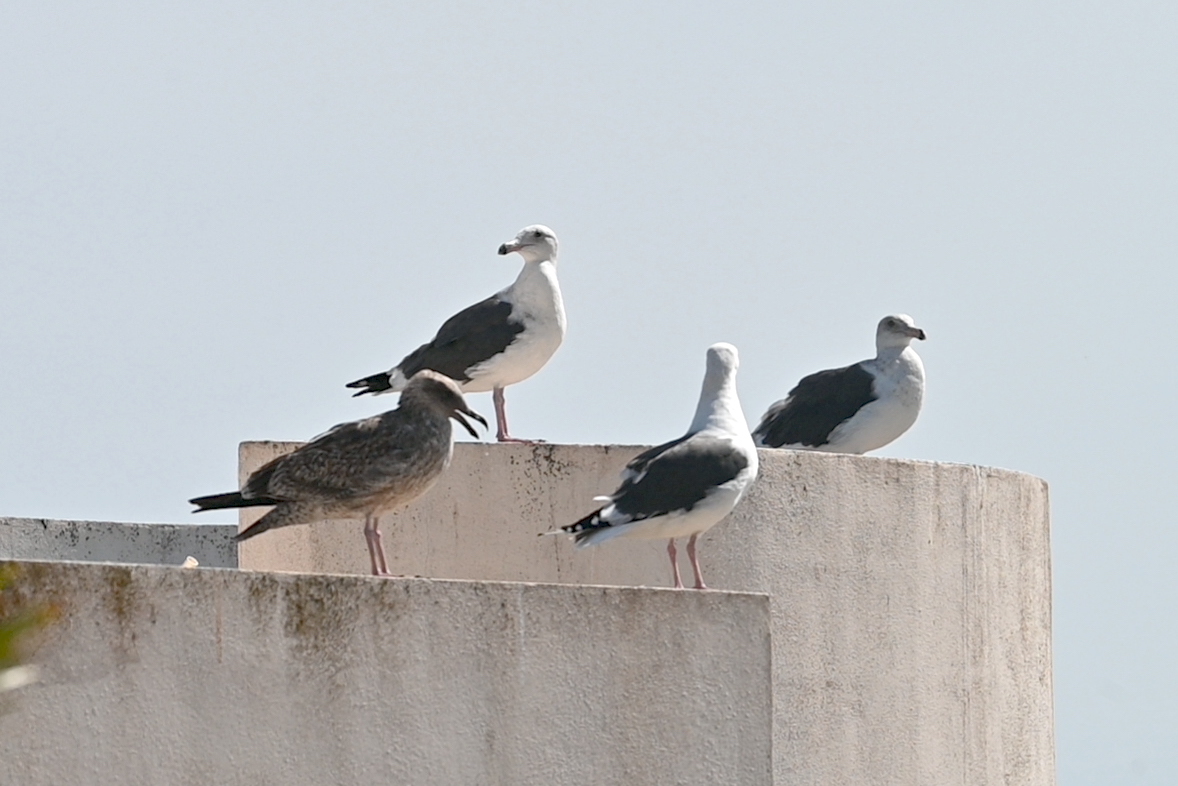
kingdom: Animalia
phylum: Chordata
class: Aves
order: Charadriiformes
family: Laridae
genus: Larus
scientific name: Larus occidentalis
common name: Western gull
